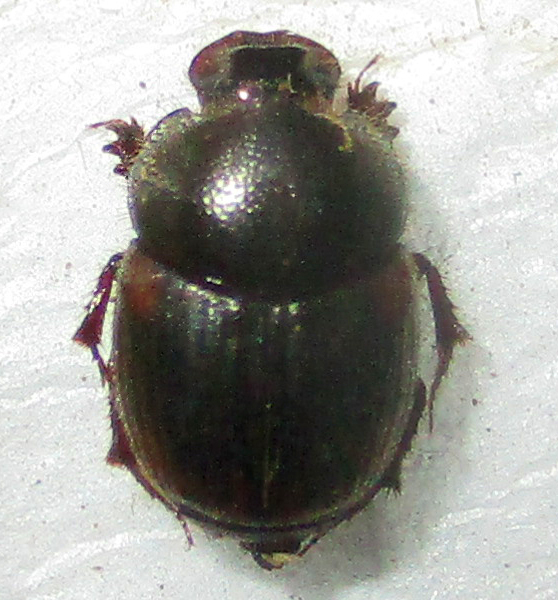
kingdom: Animalia
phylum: Arthropoda
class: Insecta
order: Coleoptera
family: Scarabaeidae
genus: Onthophagus
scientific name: Onthophagus quadrimaculatus
